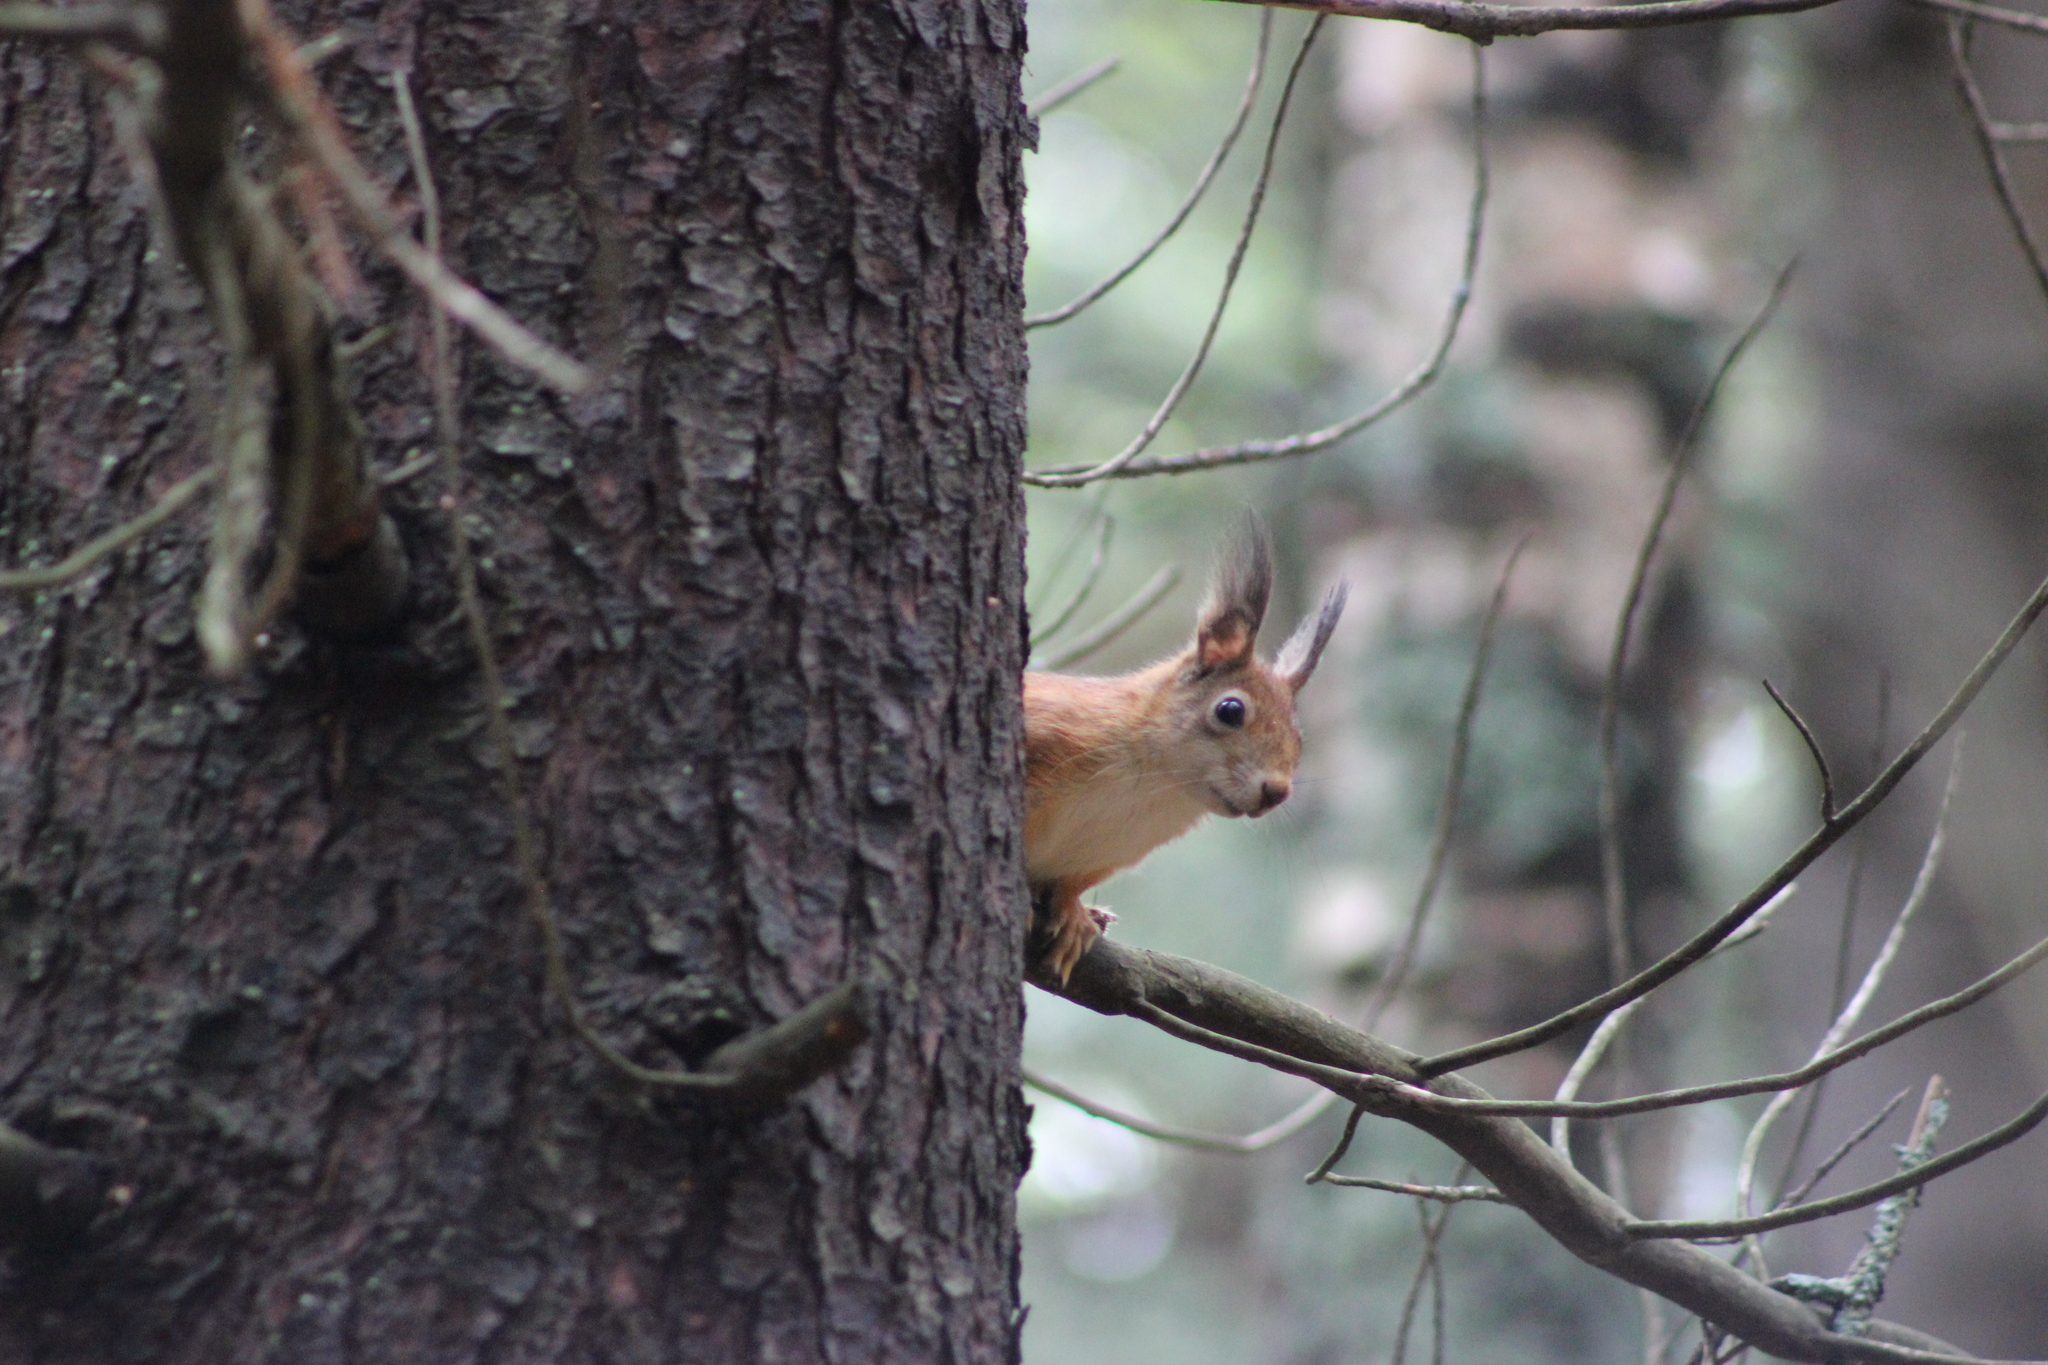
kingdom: Animalia
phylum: Chordata
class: Mammalia
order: Rodentia
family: Sciuridae
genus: Sciurus
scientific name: Sciurus vulgaris
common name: Eurasian red squirrel
